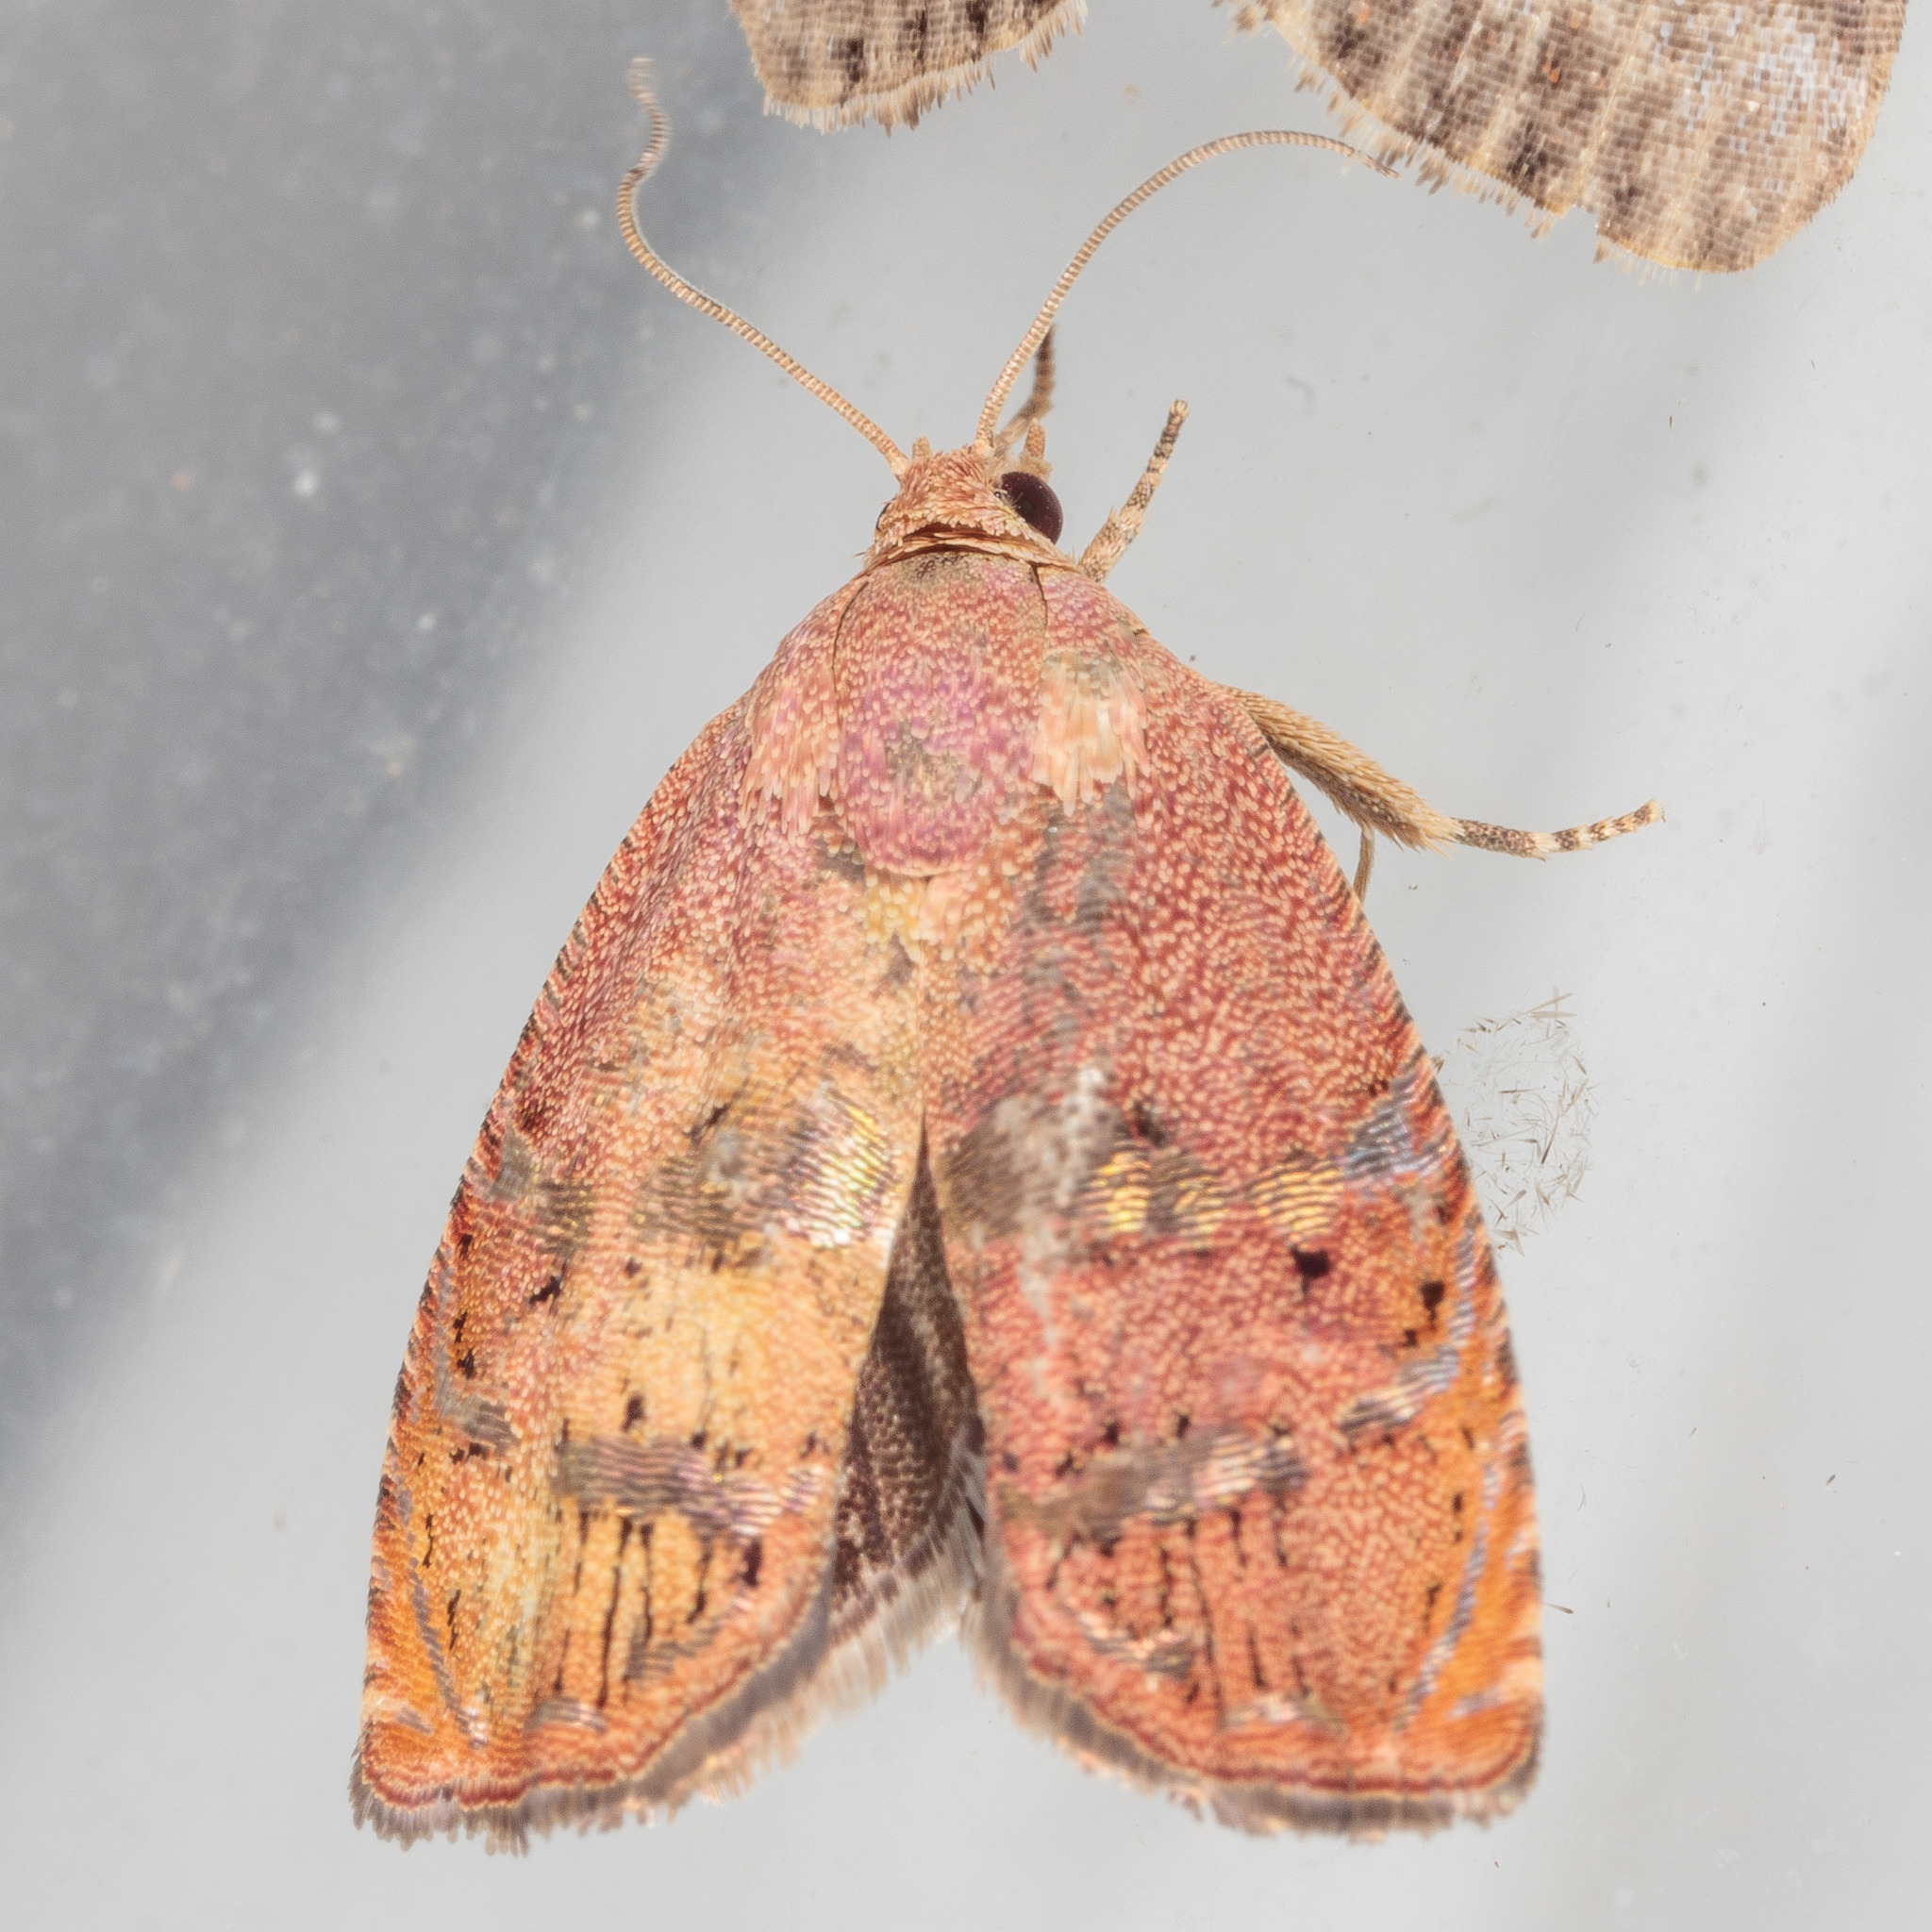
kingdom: Animalia
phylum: Arthropoda
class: Insecta
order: Lepidoptera
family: Tortricidae
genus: Cydia
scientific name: Cydia latiferreana
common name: Filbertworm moth
